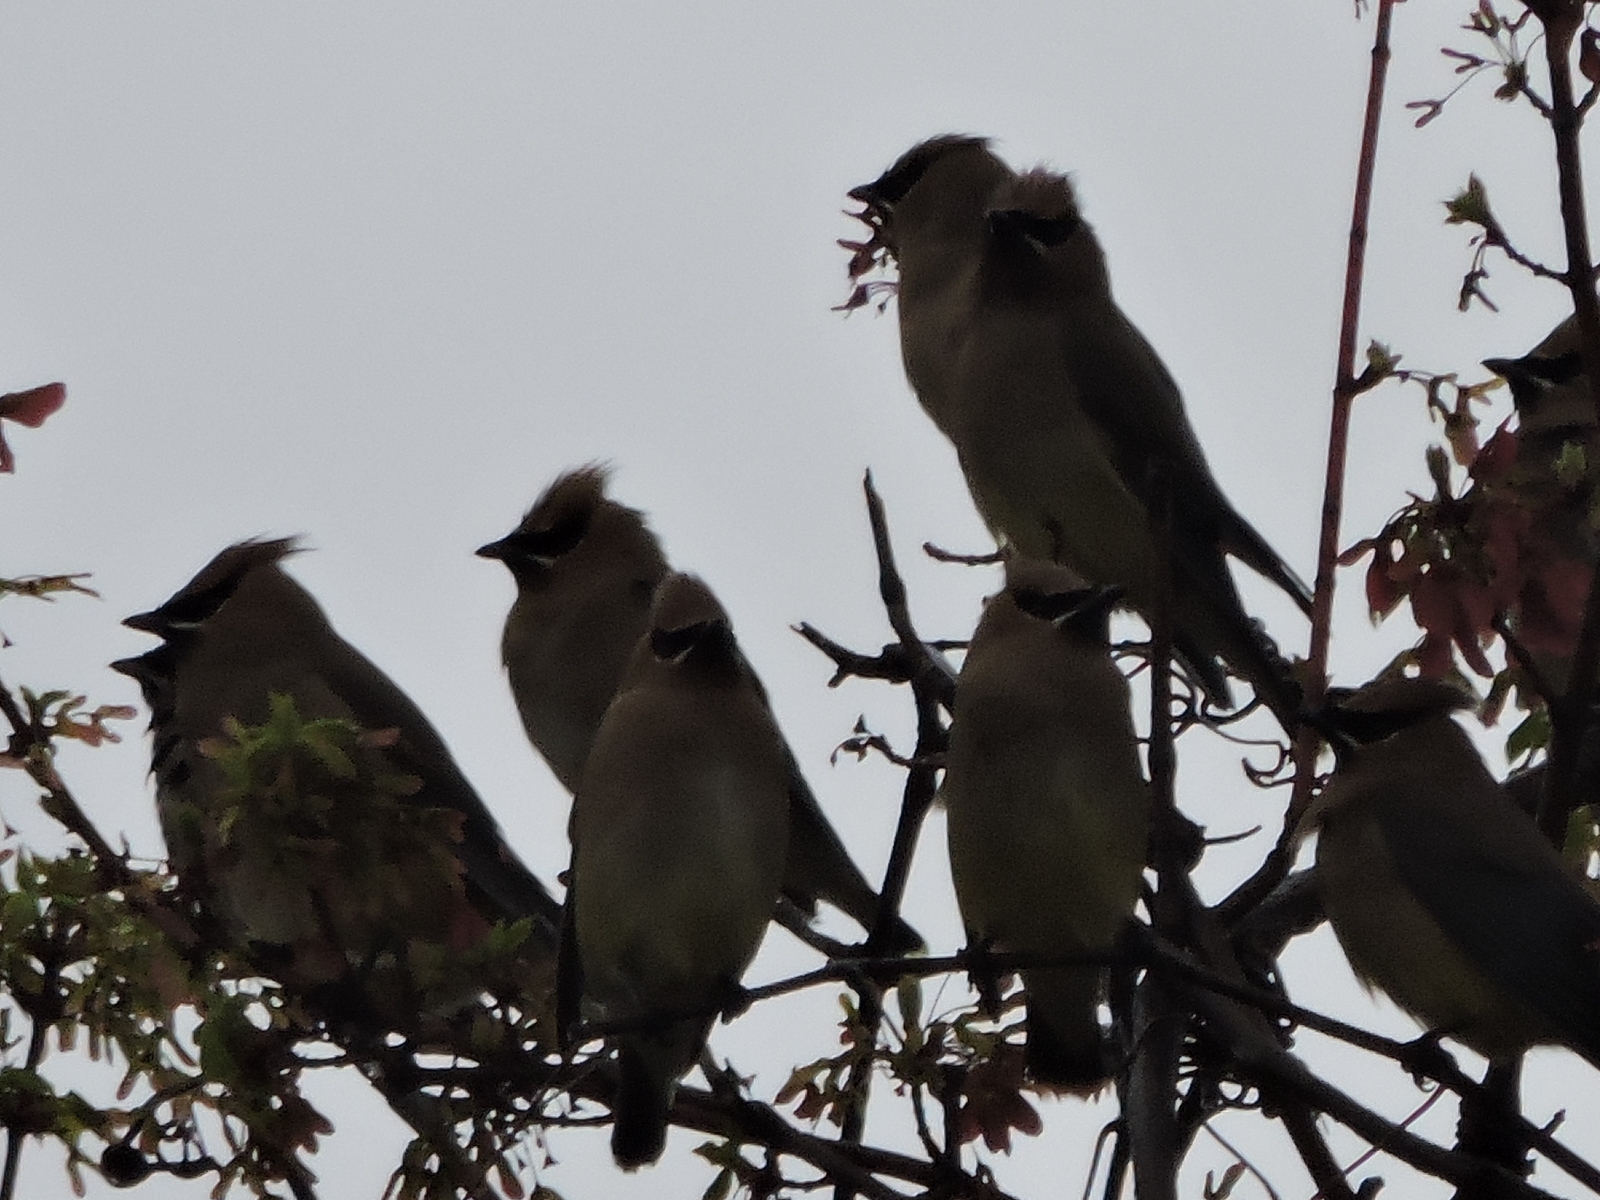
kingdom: Animalia
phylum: Chordata
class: Aves
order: Passeriformes
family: Bombycillidae
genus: Bombycilla
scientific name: Bombycilla cedrorum
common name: Cedar waxwing
